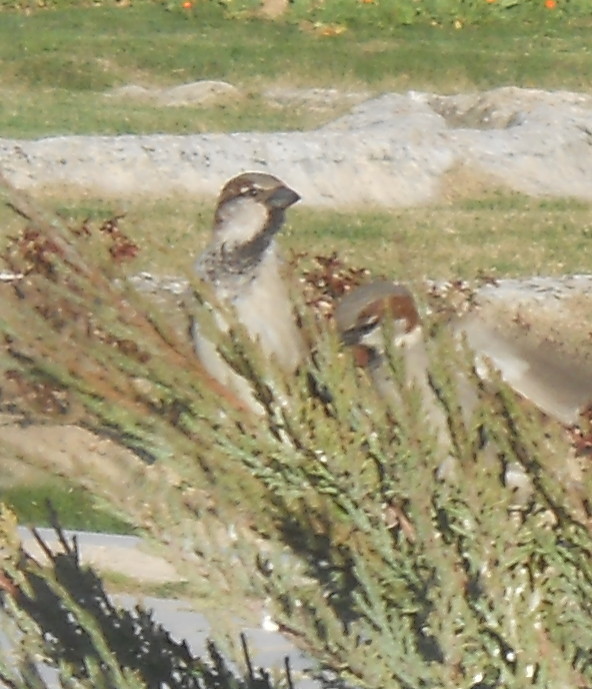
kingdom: Animalia
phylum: Chordata
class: Aves
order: Passeriformes
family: Passeridae
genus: Passer
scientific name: Passer domesticus
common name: House sparrow
